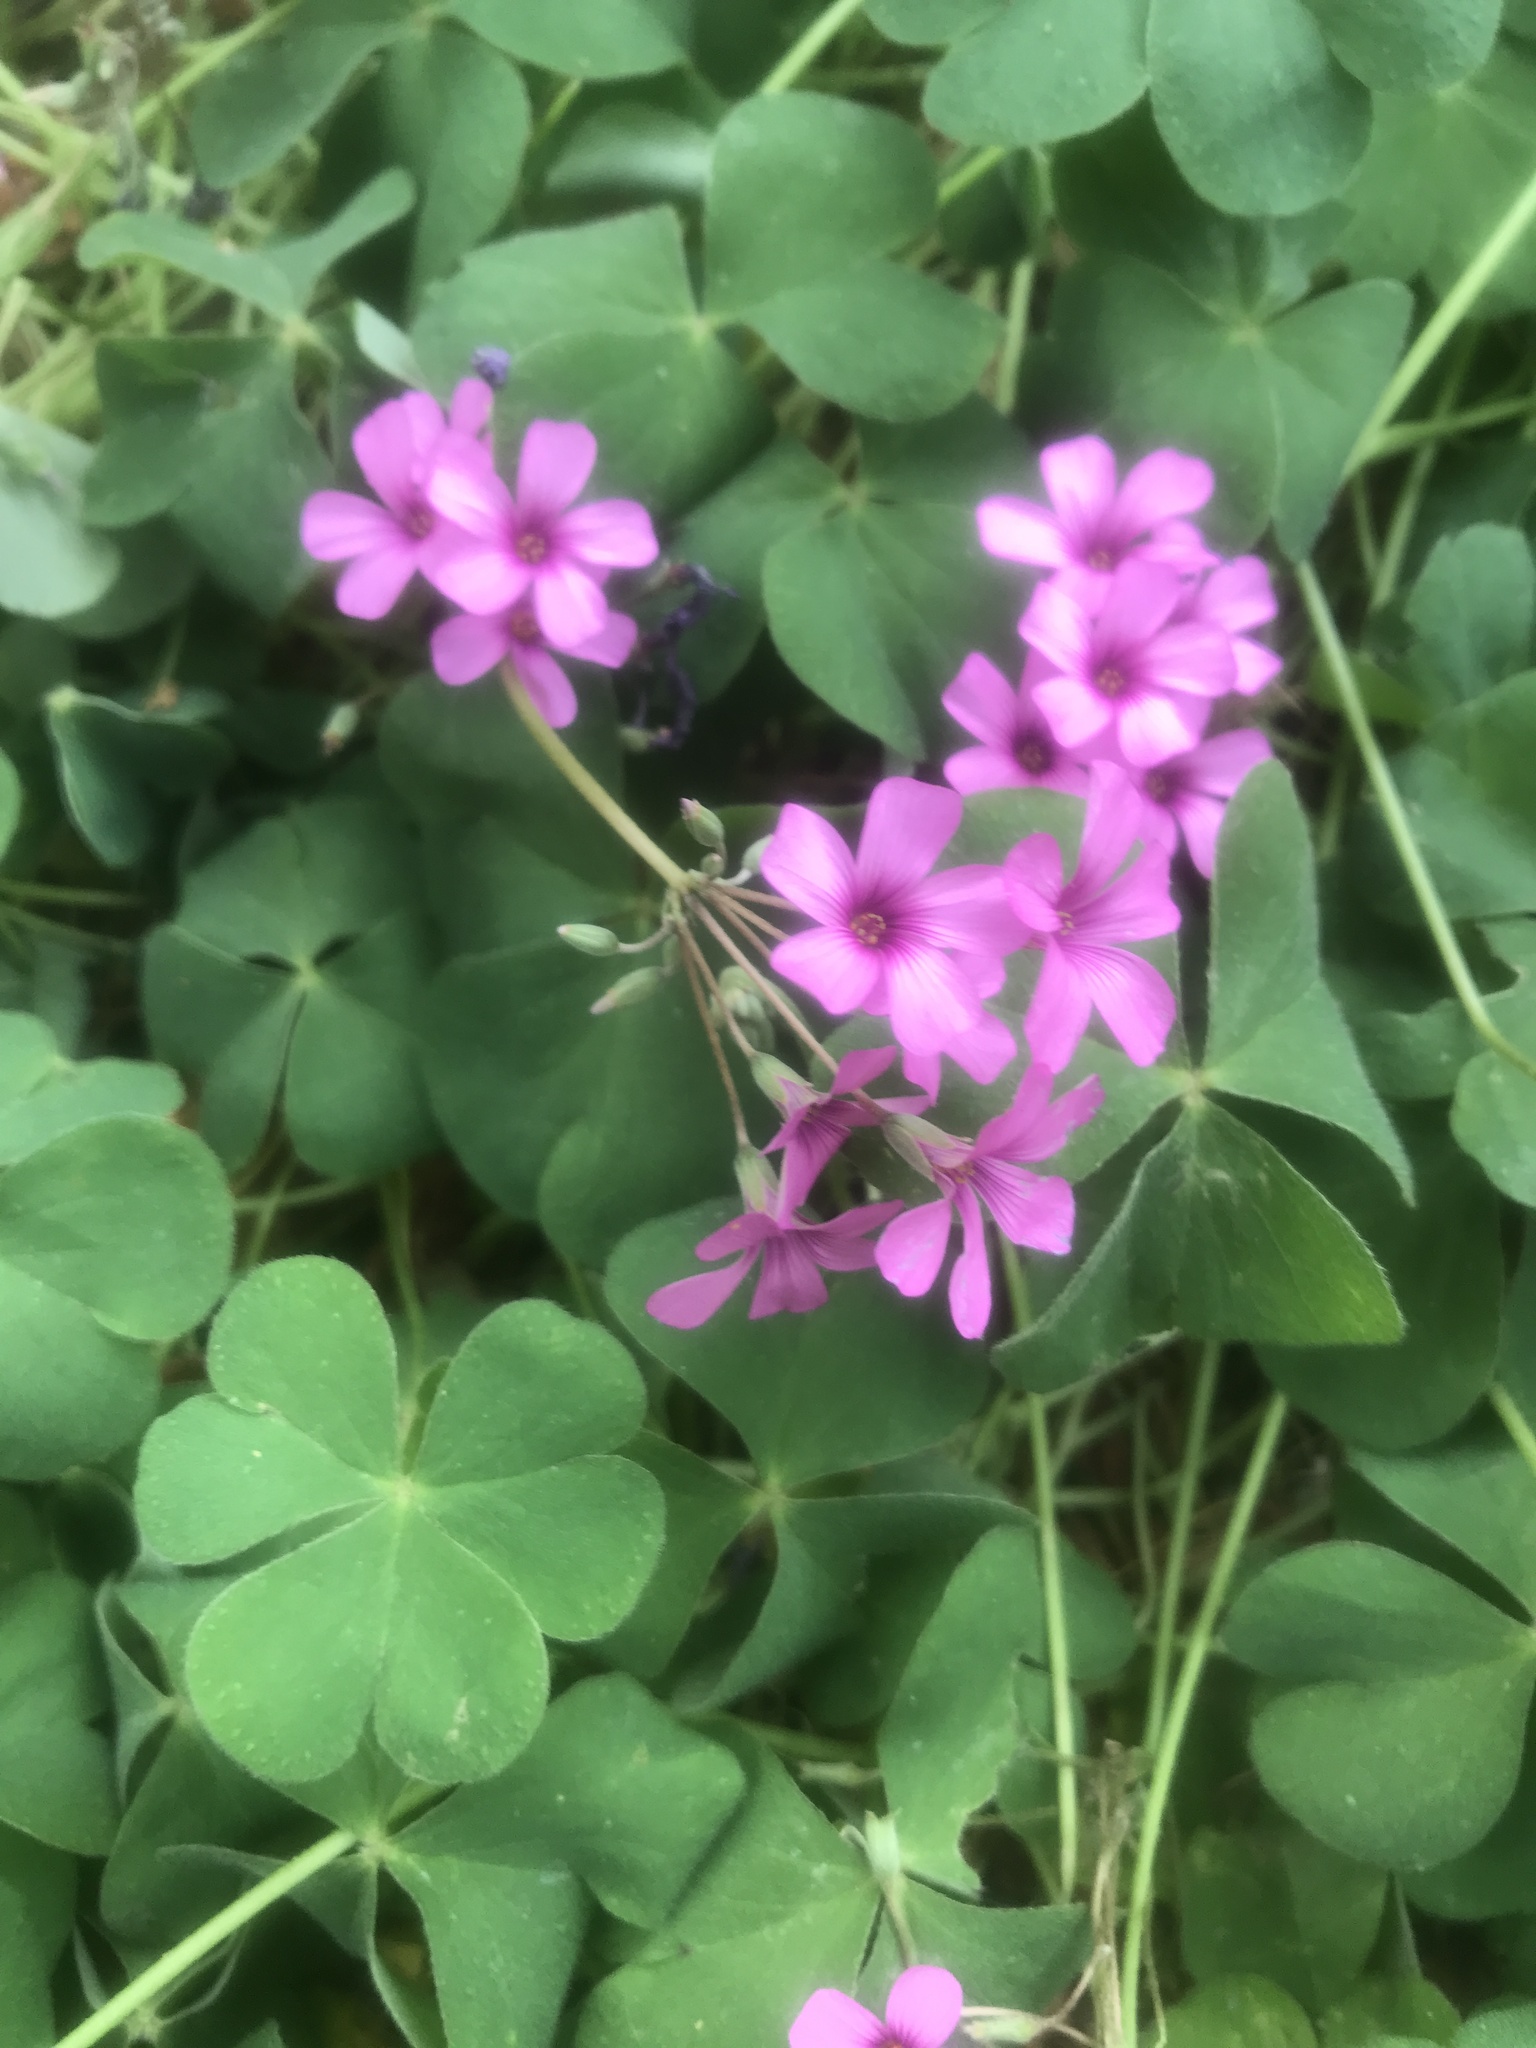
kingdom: Plantae
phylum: Tracheophyta
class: Magnoliopsida
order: Oxalidales
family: Oxalidaceae
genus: Oxalis
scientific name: Oxalis articulata
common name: Pink-sorrel
